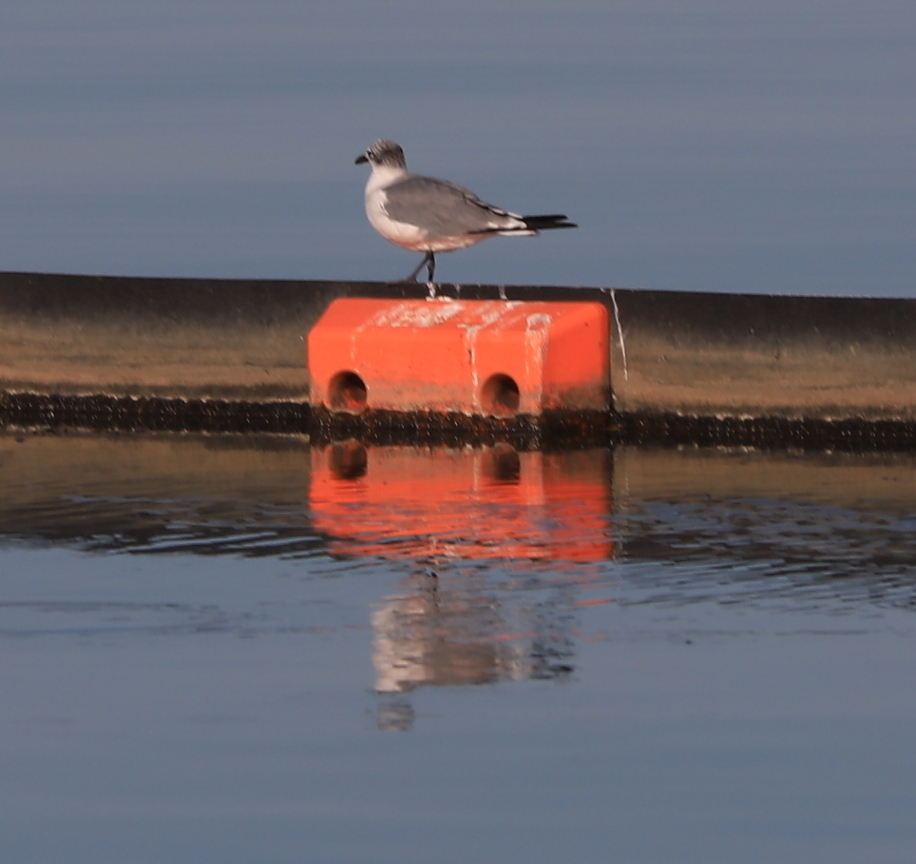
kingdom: Animalia
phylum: Chordata
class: Aves
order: Charadriiformes
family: Laridae
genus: Leucophaeus
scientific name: Leucophaeus atricilla
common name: Laughing gull
